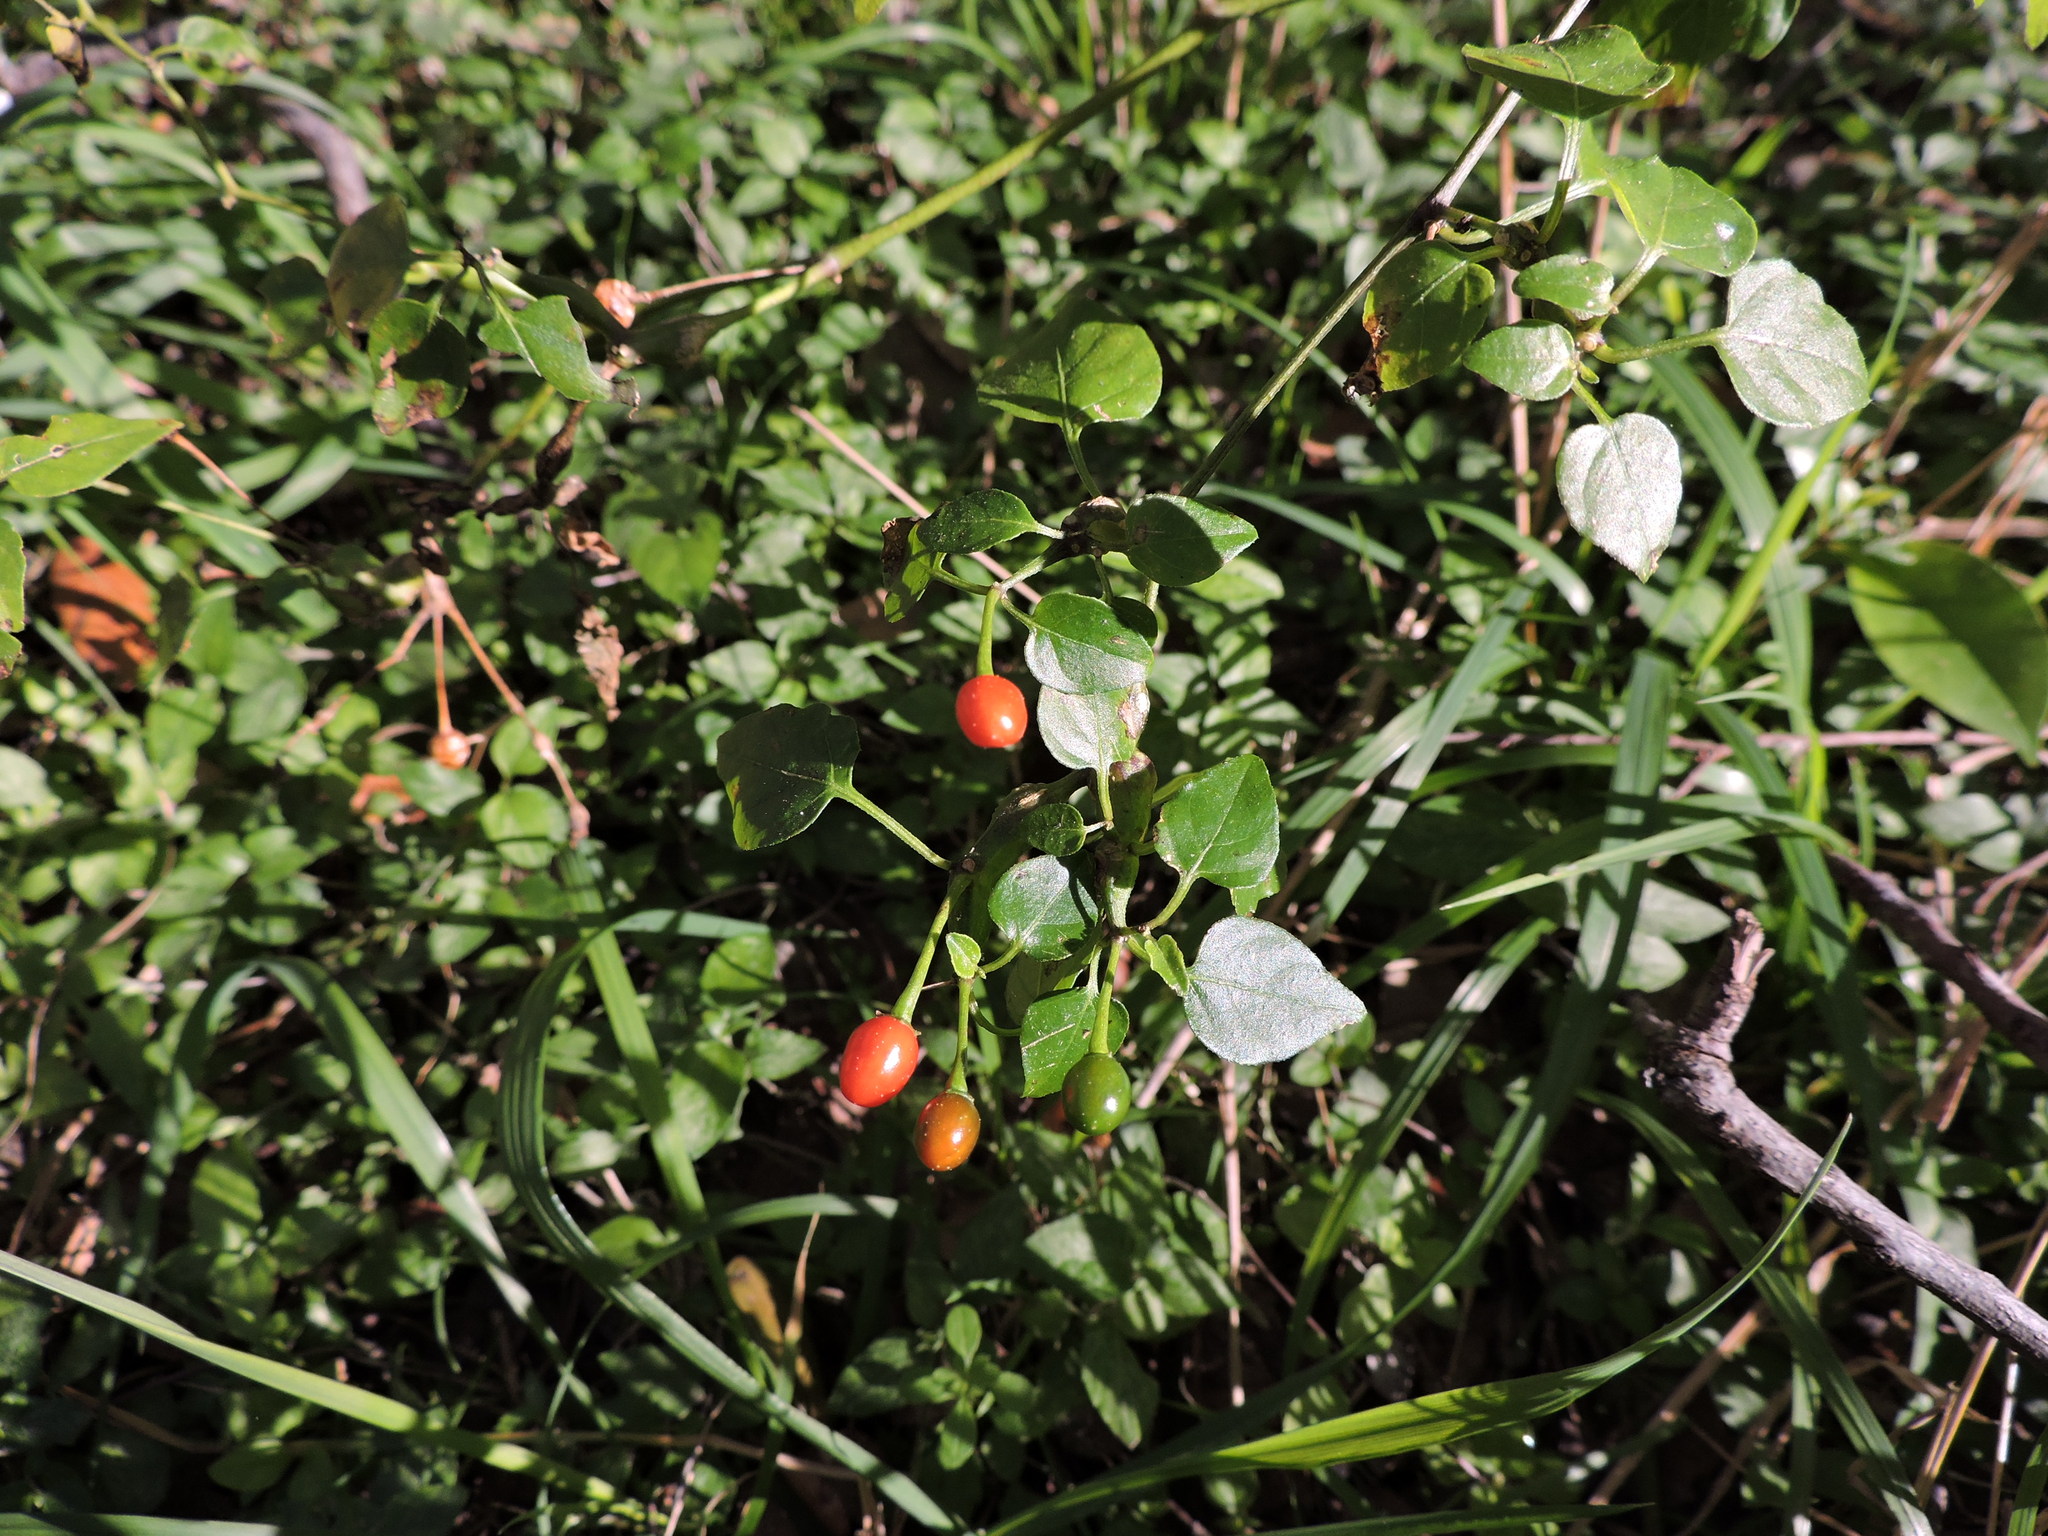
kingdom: Plantae
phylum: Tracheophyta
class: Magnoliopsida
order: Solanales
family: Solanaceae
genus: Capsicum
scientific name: Capsicum annuum
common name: Sweet pepper
